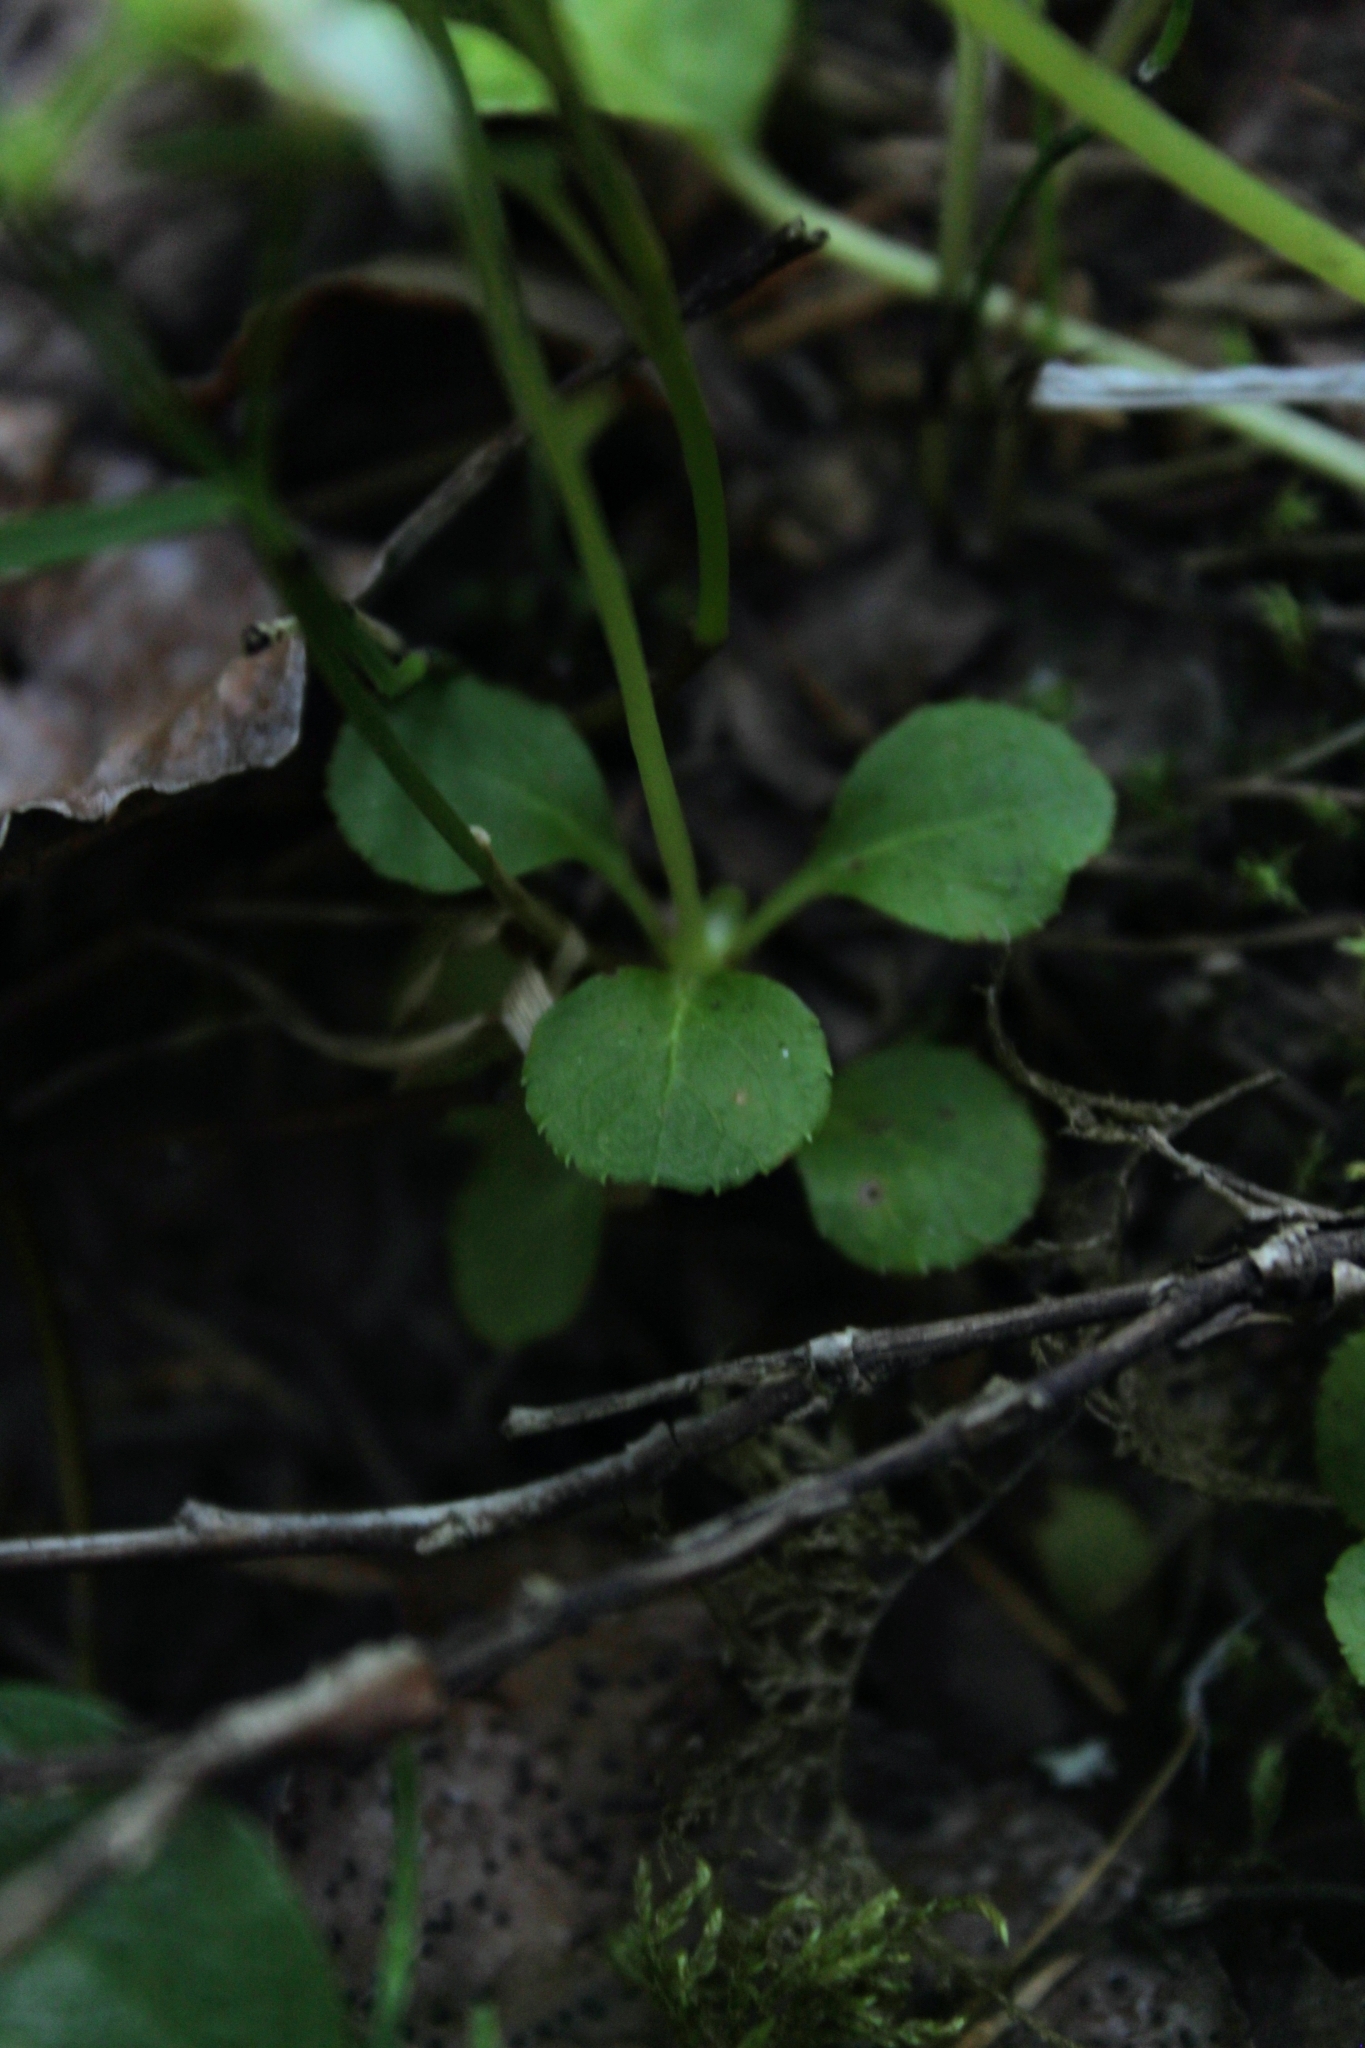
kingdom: Plantae
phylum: Tracheophyta
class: Magnoliopsida
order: Ericales
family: Ericaceae
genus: Moneses
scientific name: Moneses uniflora
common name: One-flowered wintergreen
